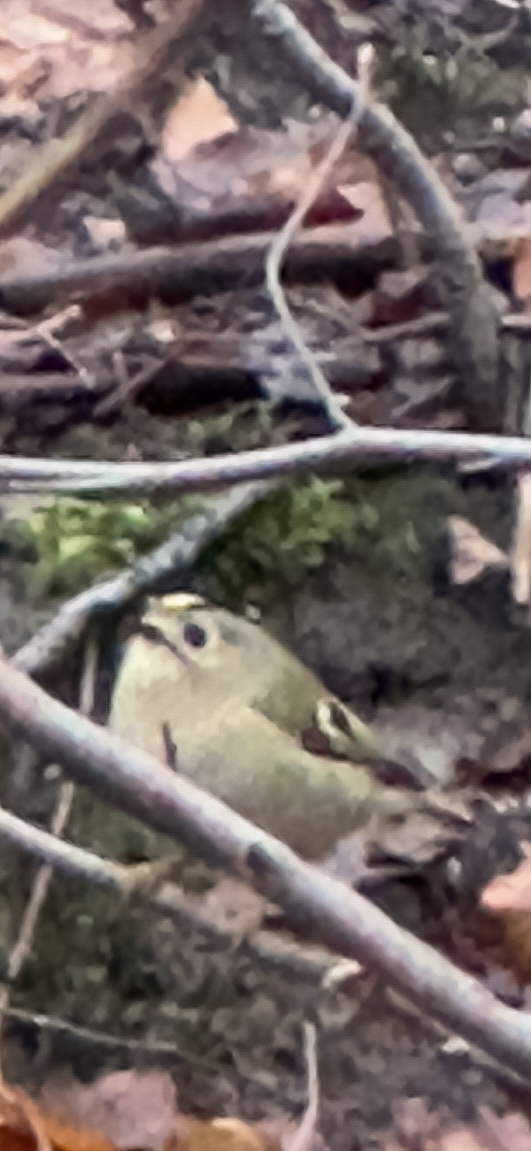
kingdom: Animalia
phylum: Chordata
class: Aves
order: Passeriformes
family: Regulidae
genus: Regulus
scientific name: Regulus regulus
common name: Goldcrest
